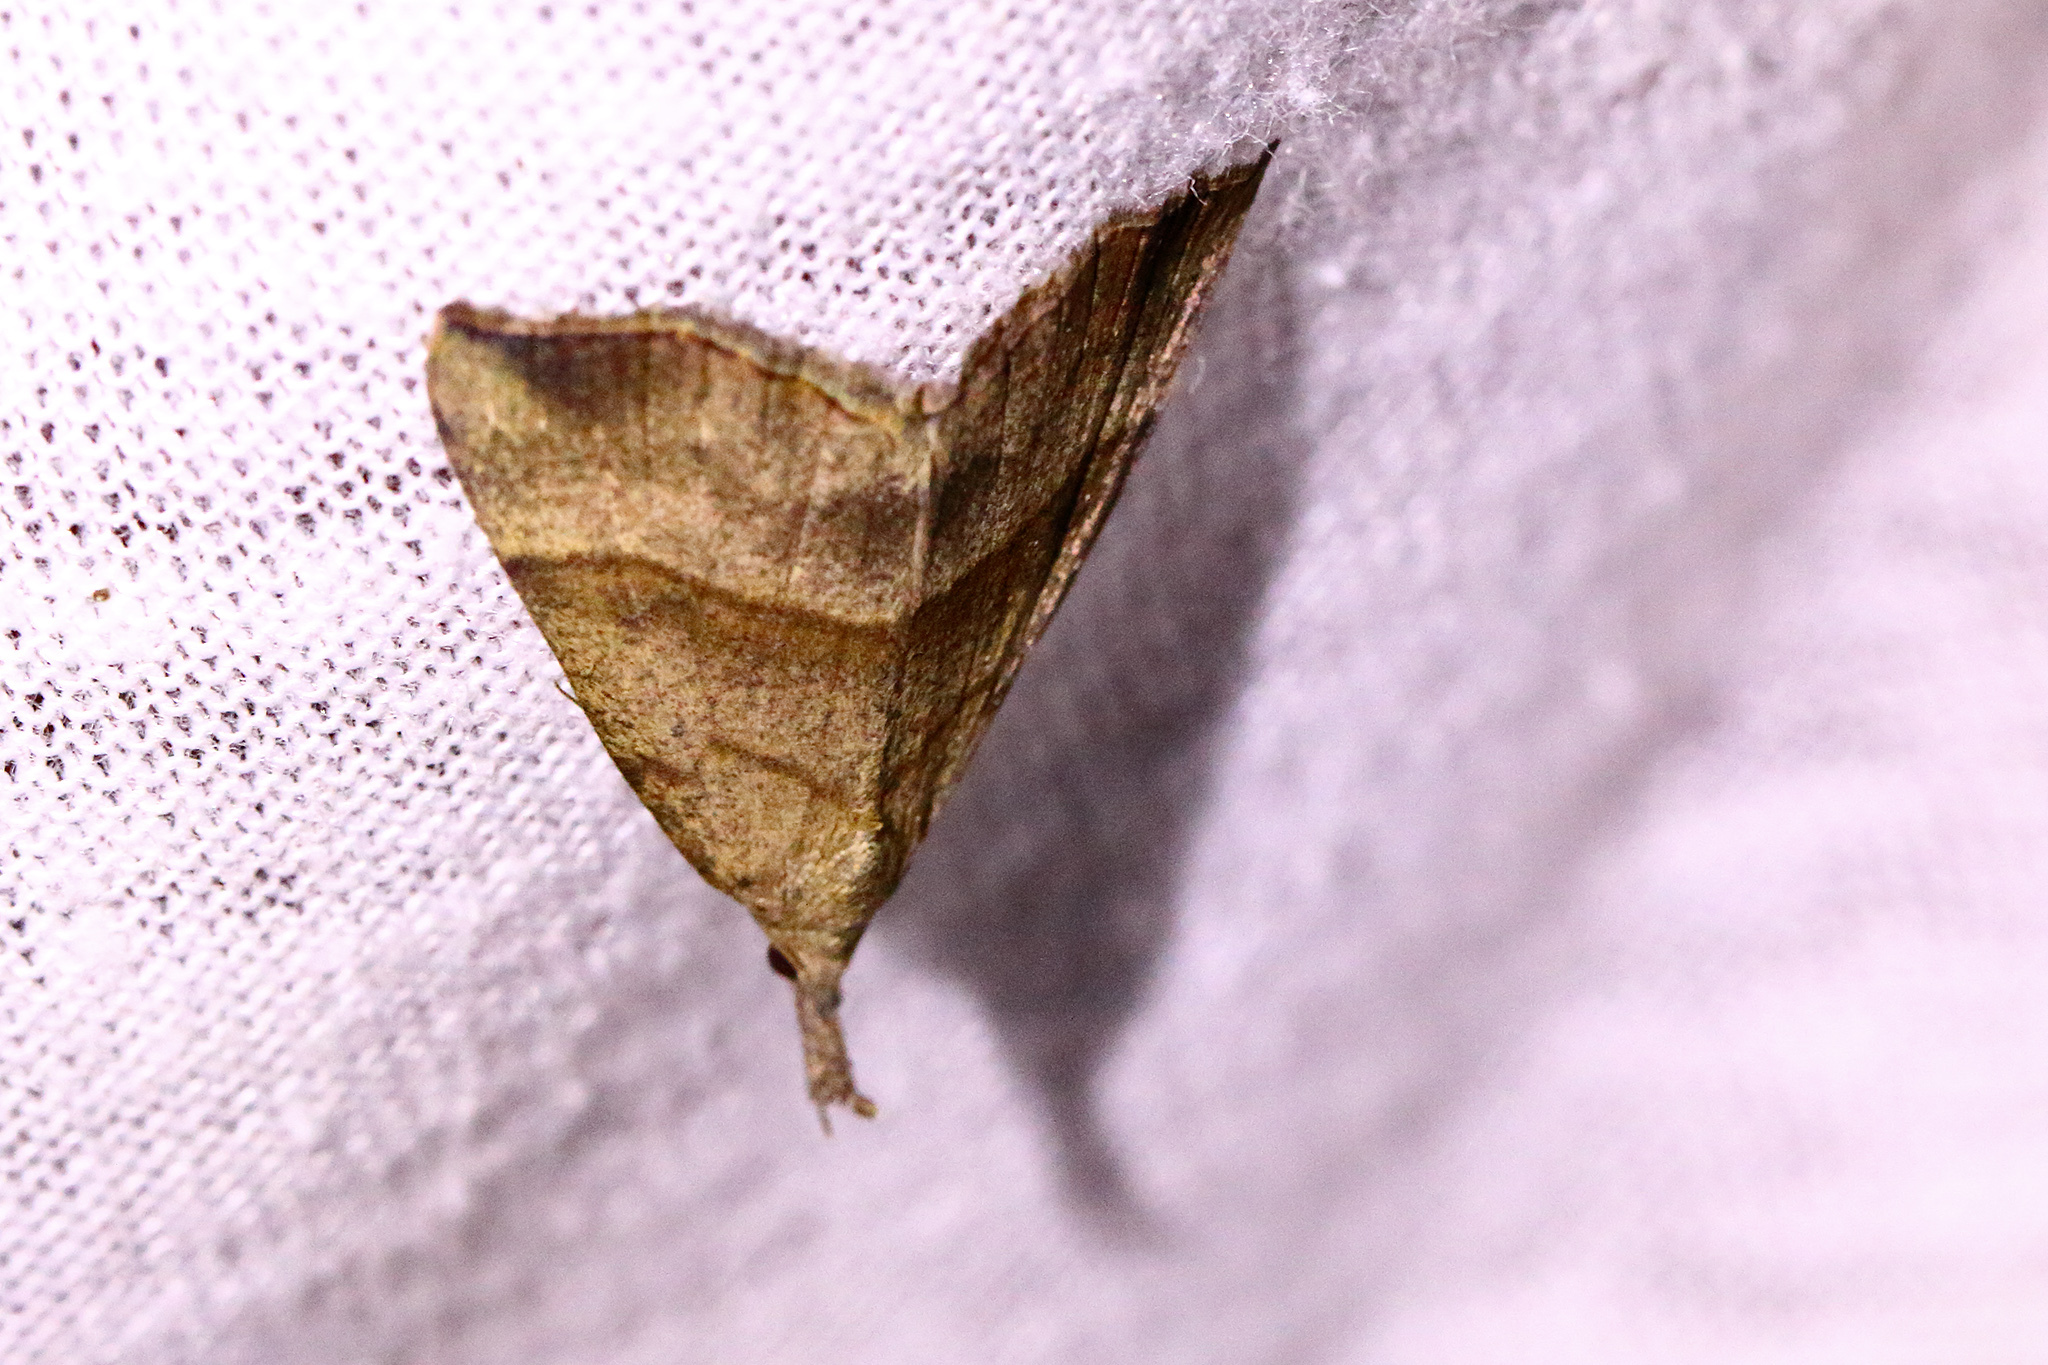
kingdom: Animalia
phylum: Arthropoda
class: Insecta
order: Lepidoptera
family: Erebidae
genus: Hypena
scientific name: Hypena proboscidalis
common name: Snout
